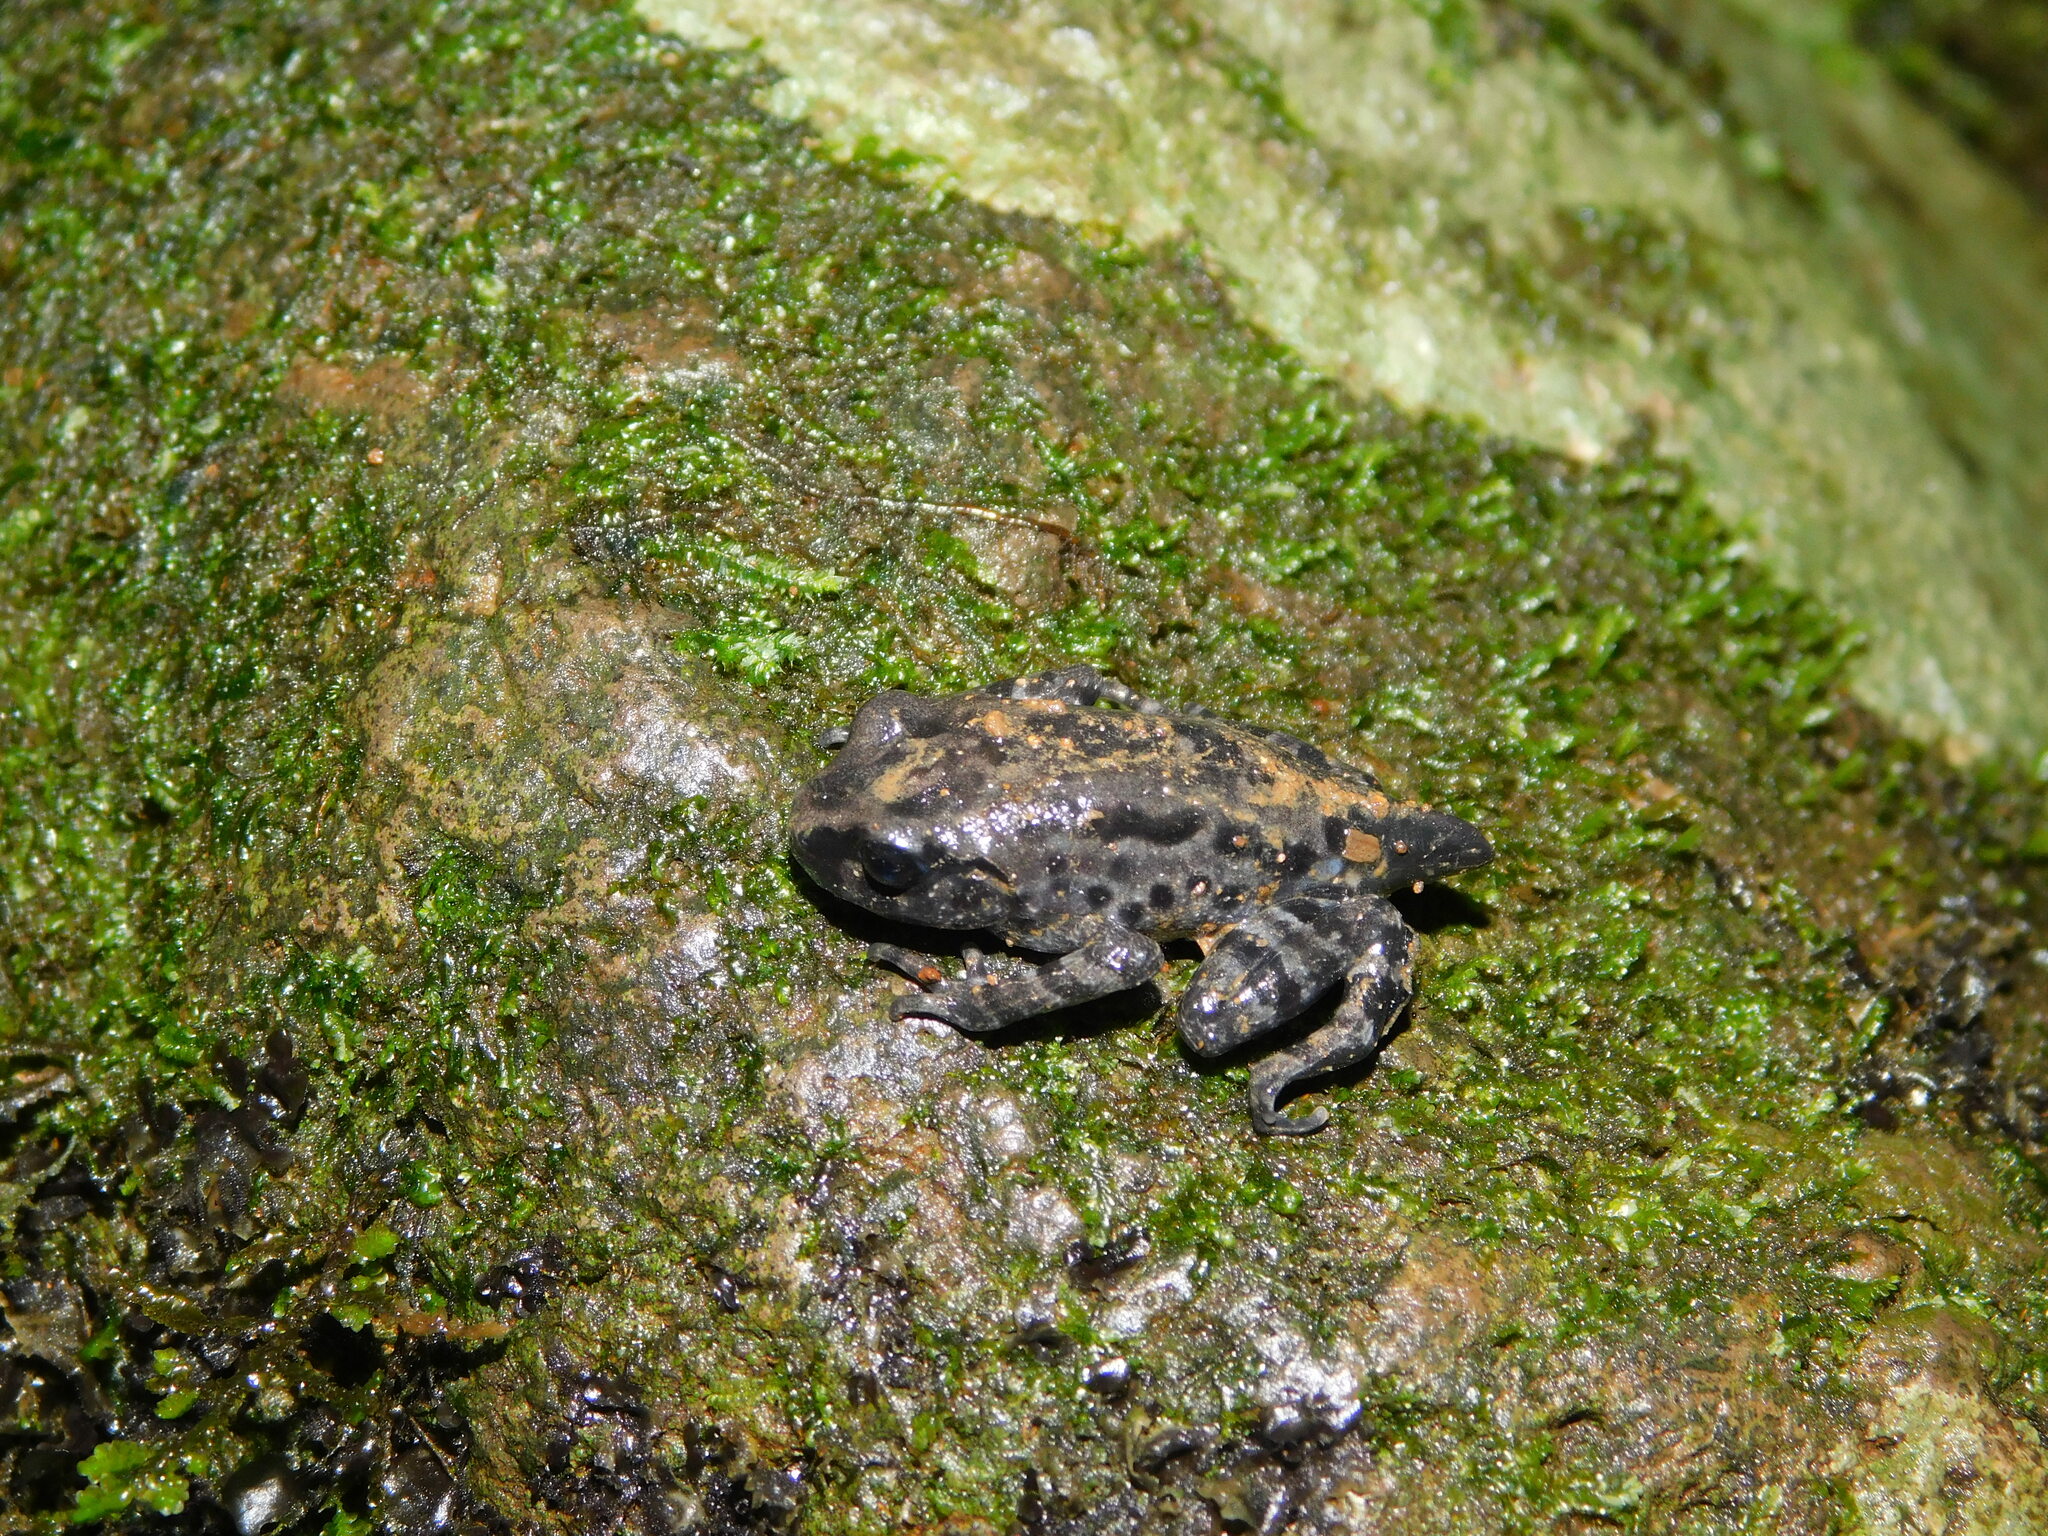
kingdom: Animalia
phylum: Chordata
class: Amphibia
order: Anura
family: Megophryidae
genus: Leptobrachium
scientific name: Leptobrachium hasseltii
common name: Hasselt's litter frog
